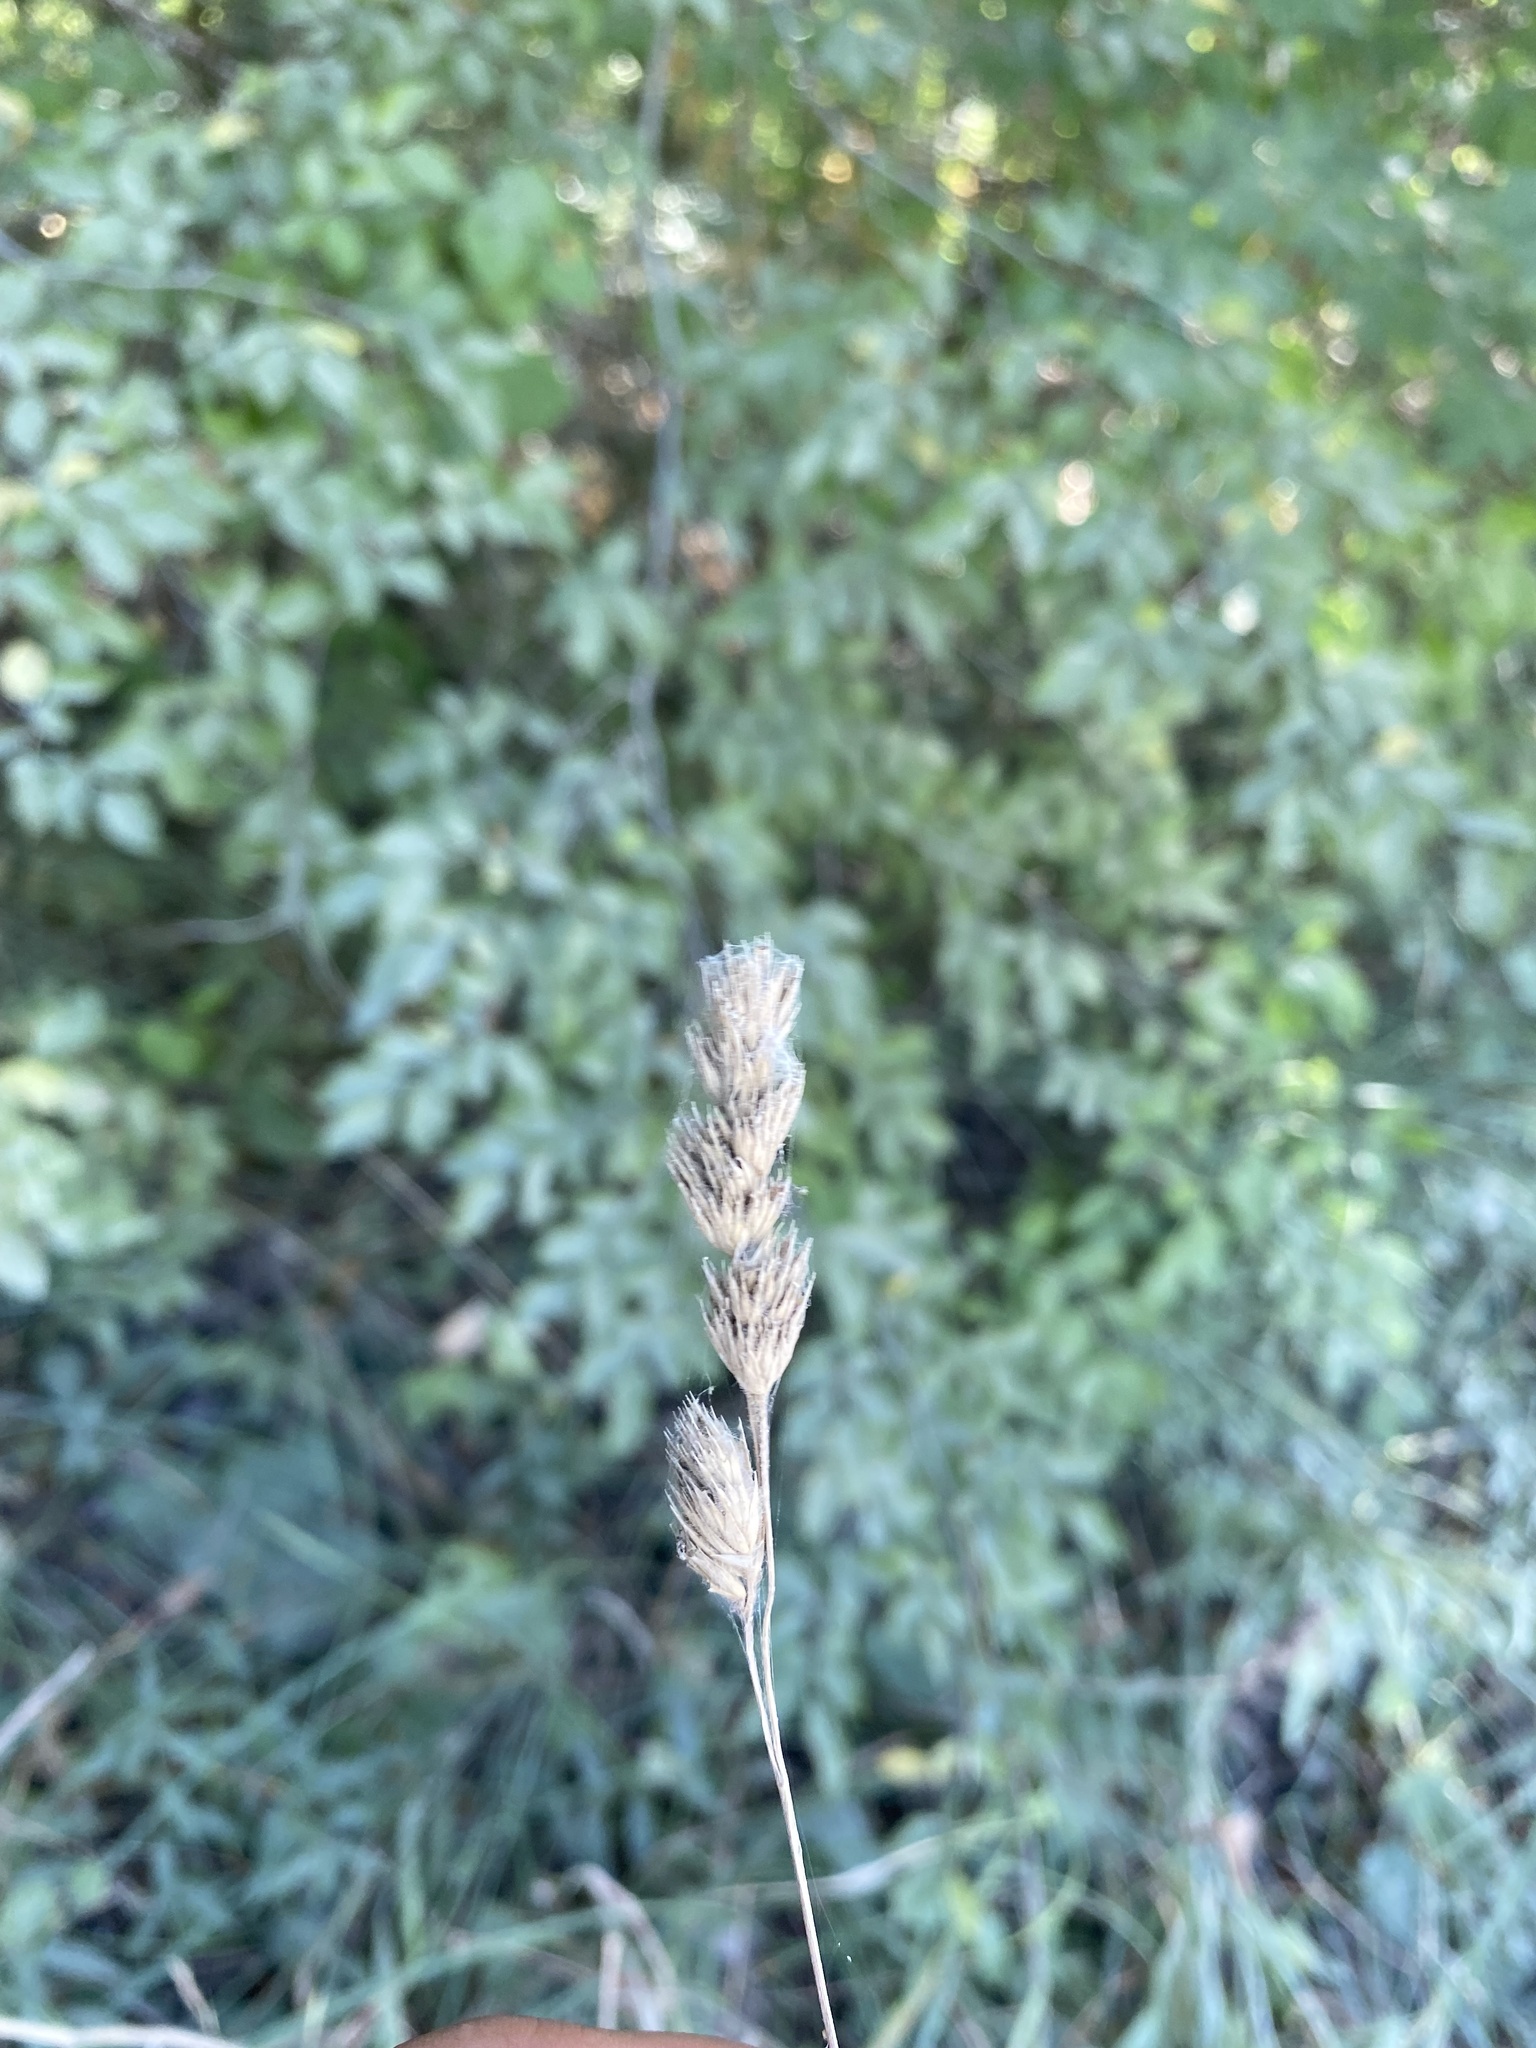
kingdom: Plantae
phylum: Tracheophyta
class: Liliopsida
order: Poales
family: Poaceae
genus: Dactylis
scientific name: Dactylis glomerata
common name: Orchardgrass
